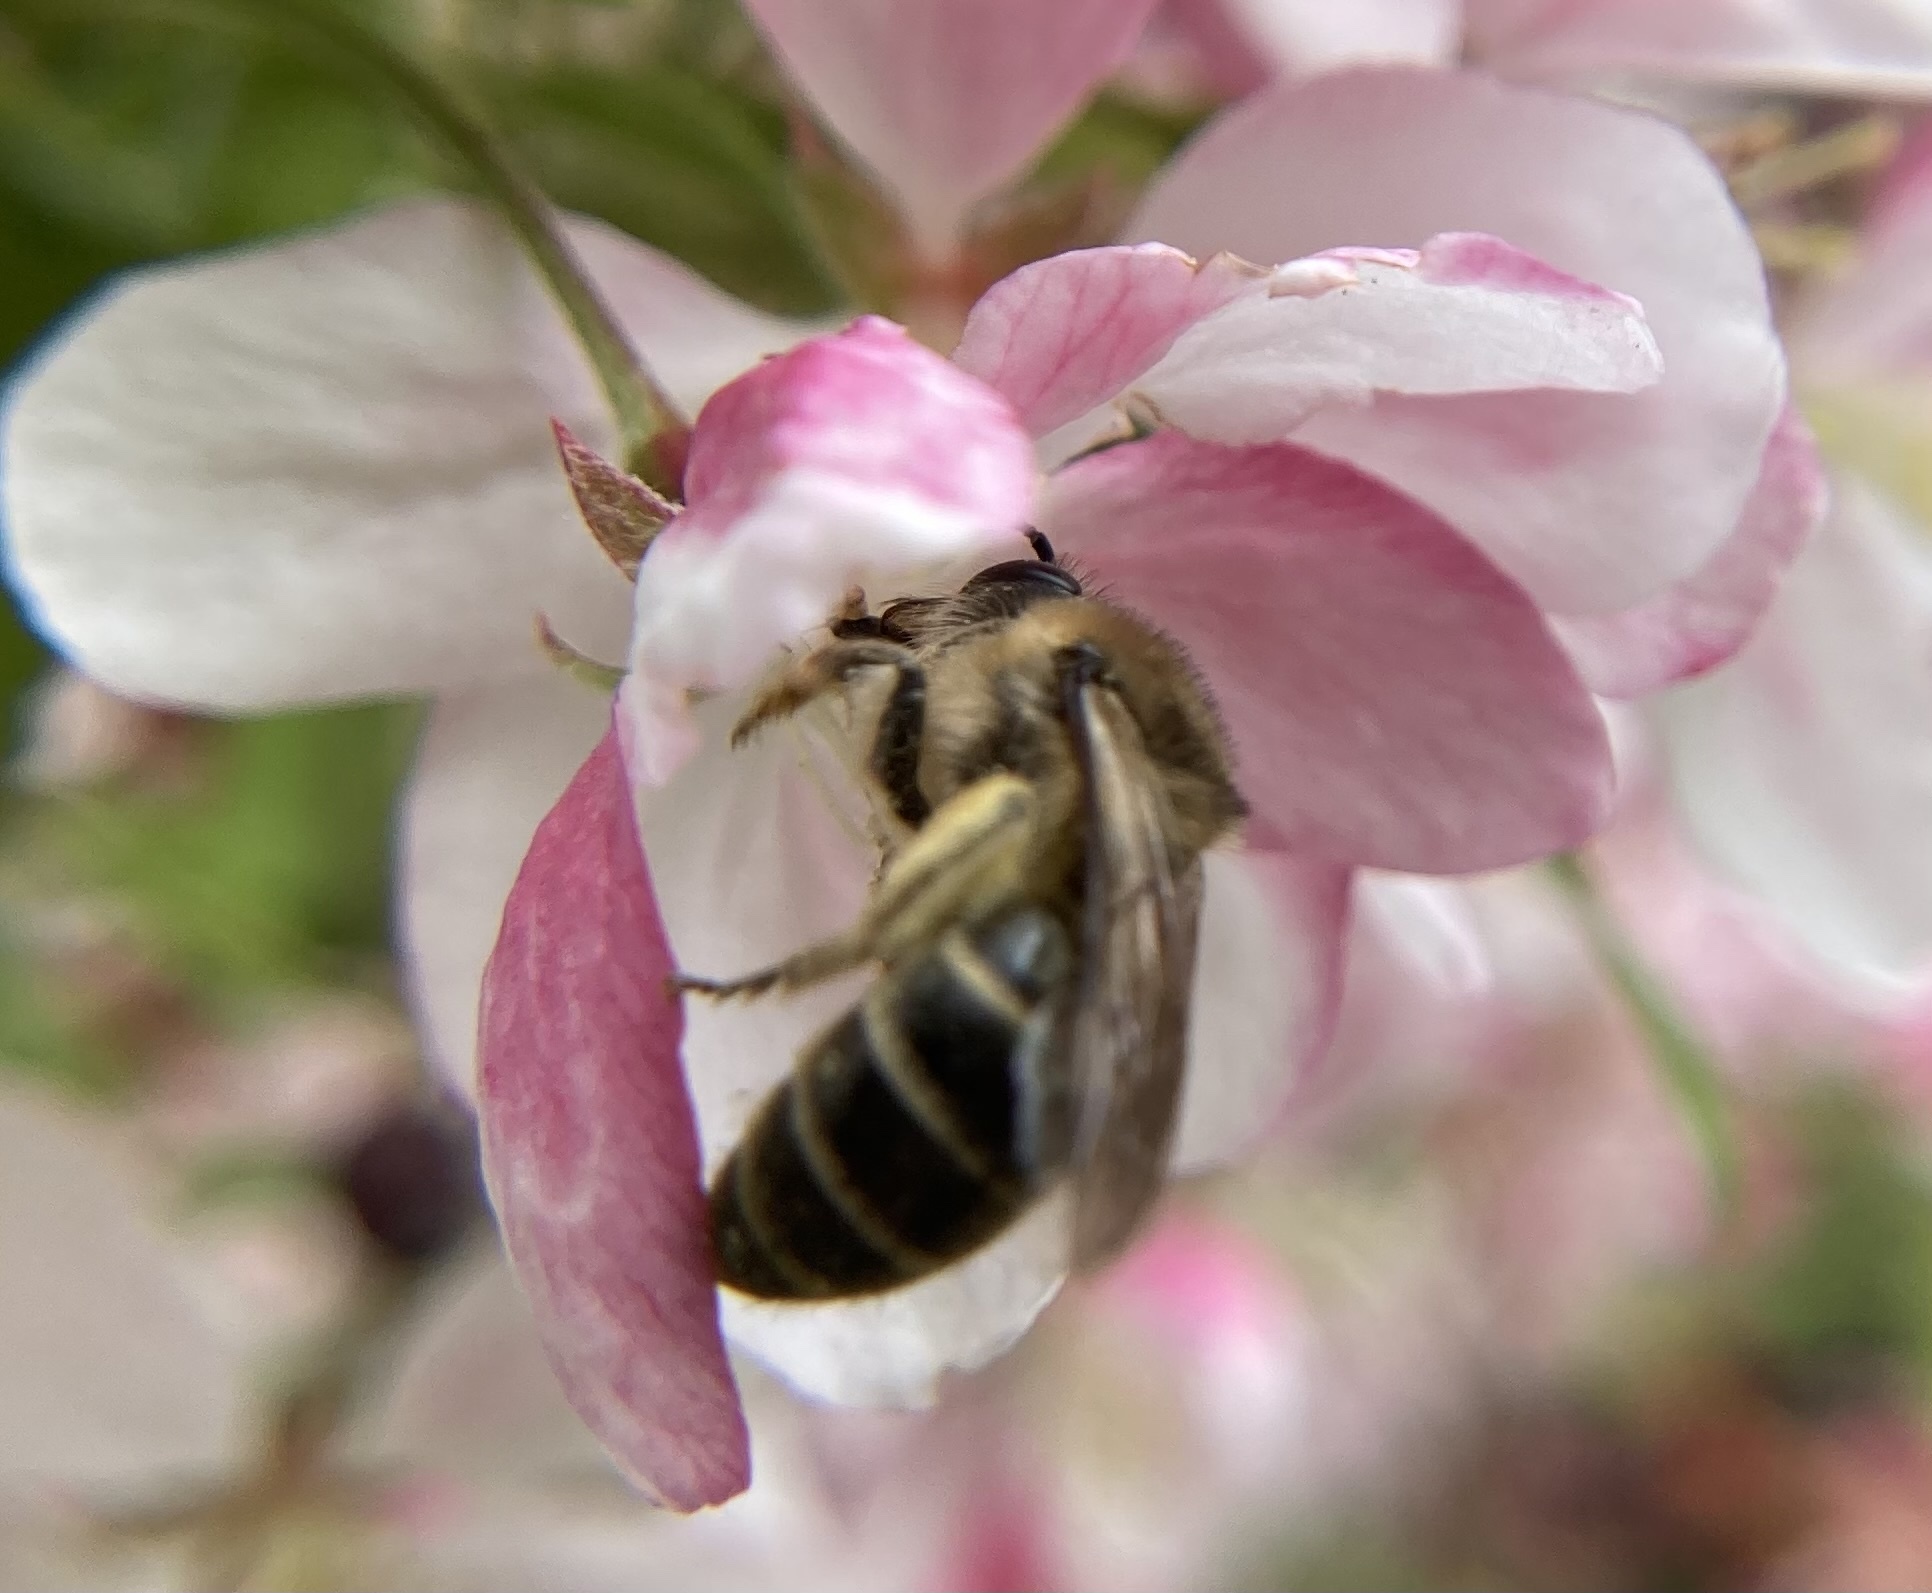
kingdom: Animalia
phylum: Arthropoda
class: Insecta
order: Hymenoptera
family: Colletidae
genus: Colletes
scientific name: Colletes inaequalis
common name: Unequal cellophane bee
